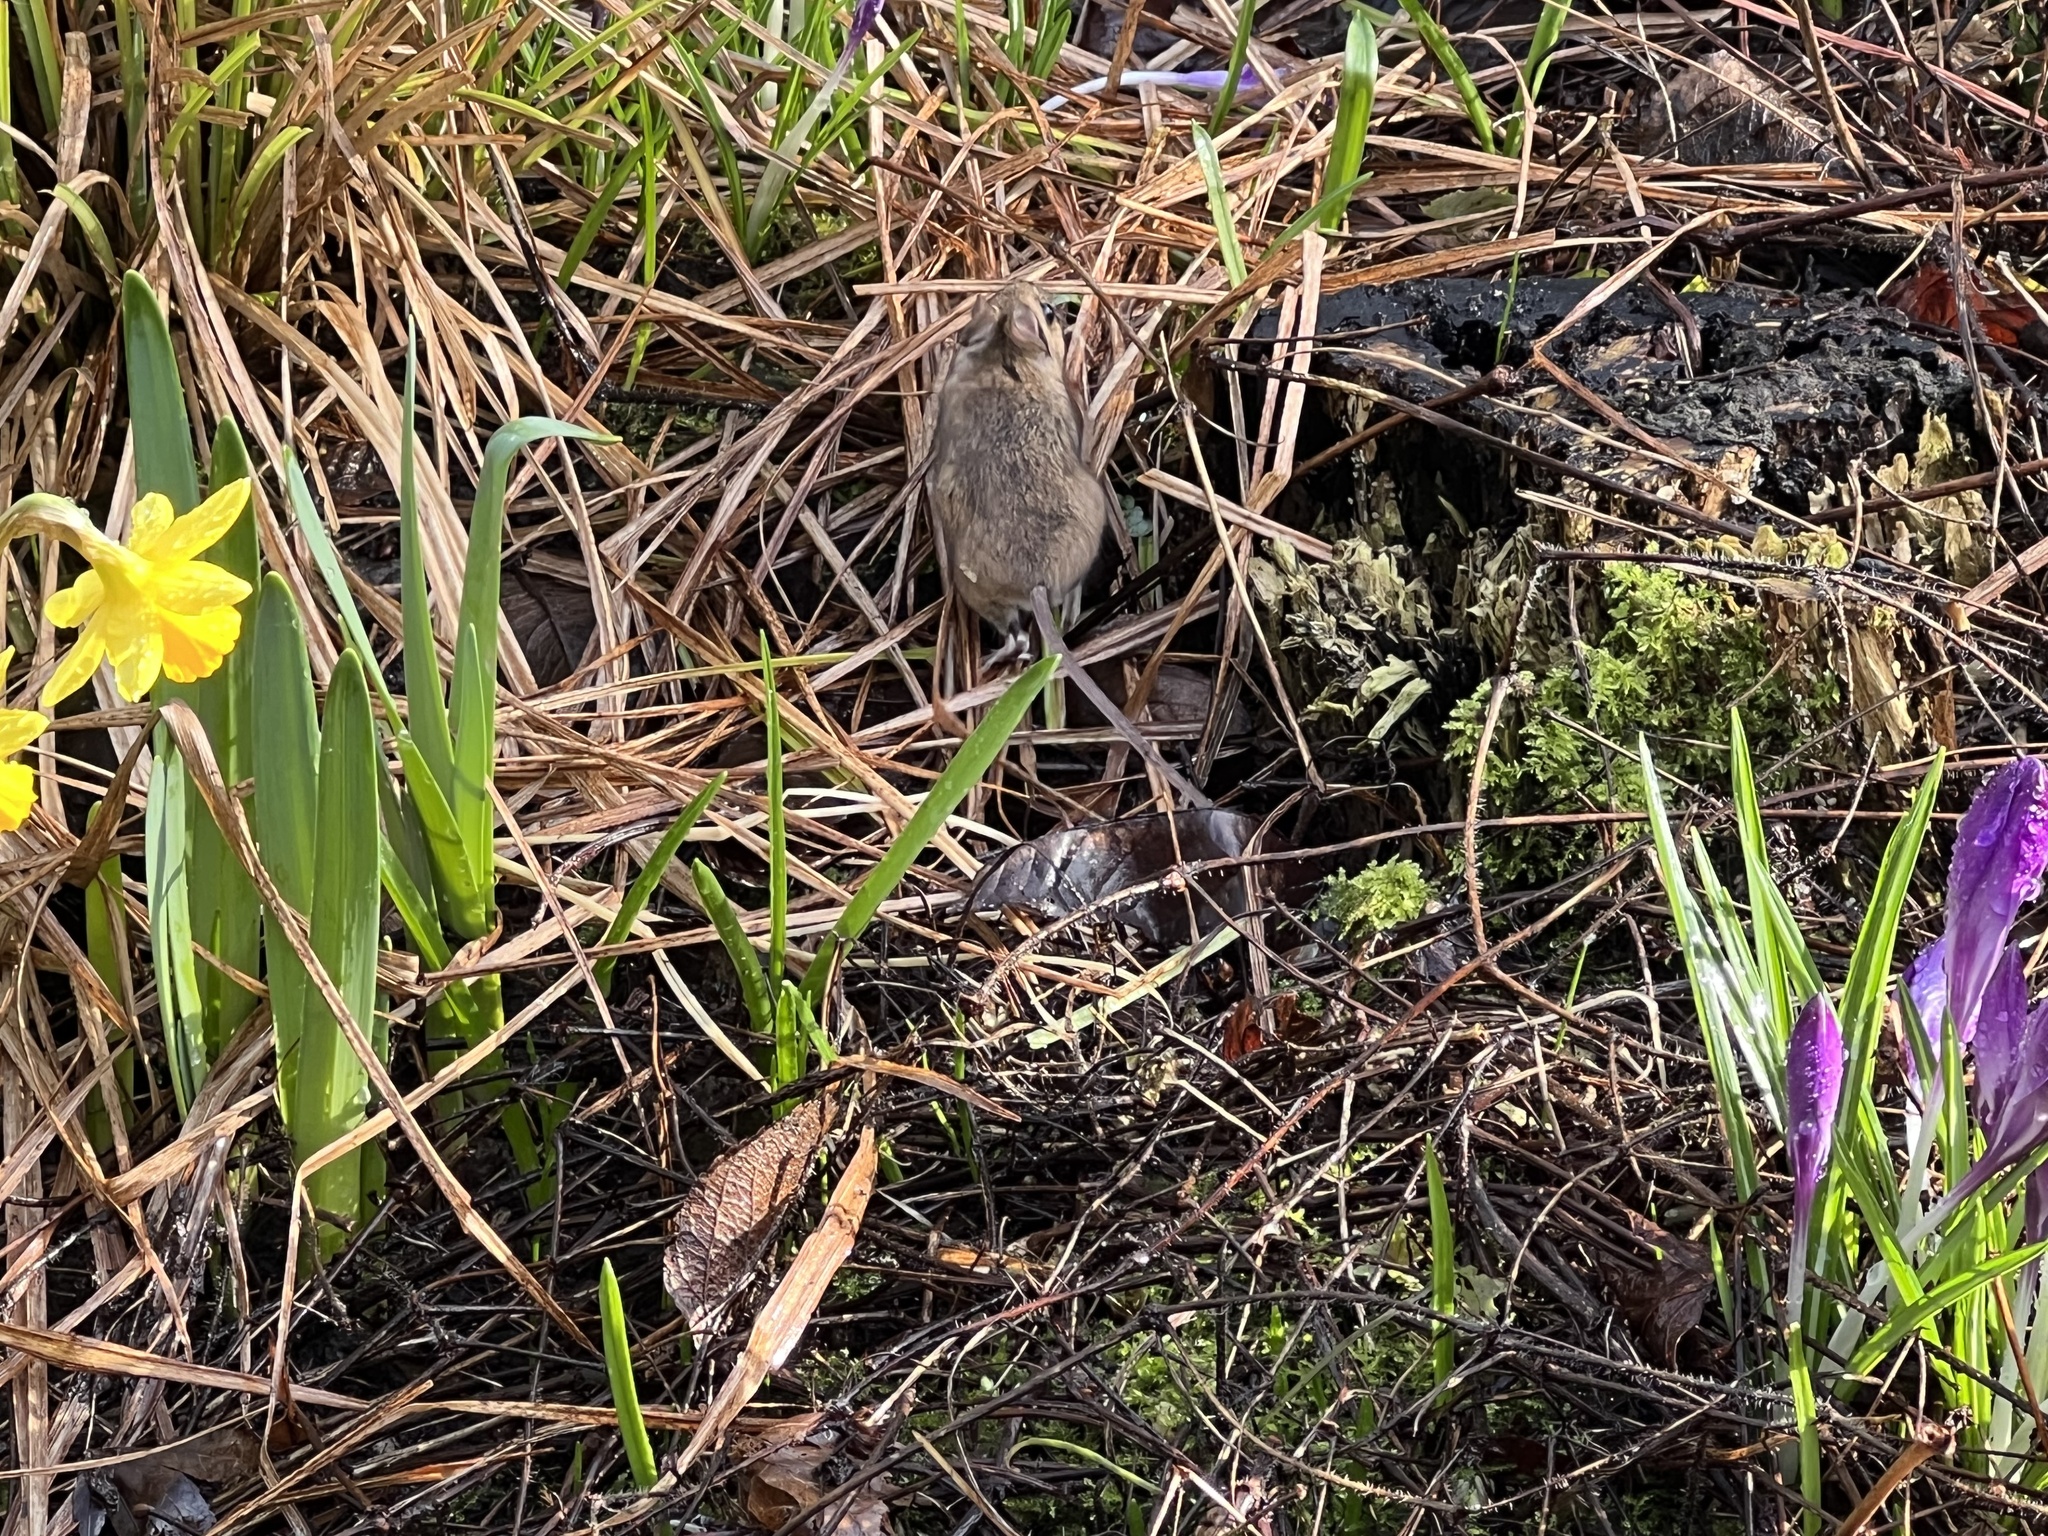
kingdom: Animalia
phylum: Chordata
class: Mammalia
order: Rodentia
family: Muridae
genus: Apodemus
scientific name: Apodemus sylvaticus
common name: Wood mouse
